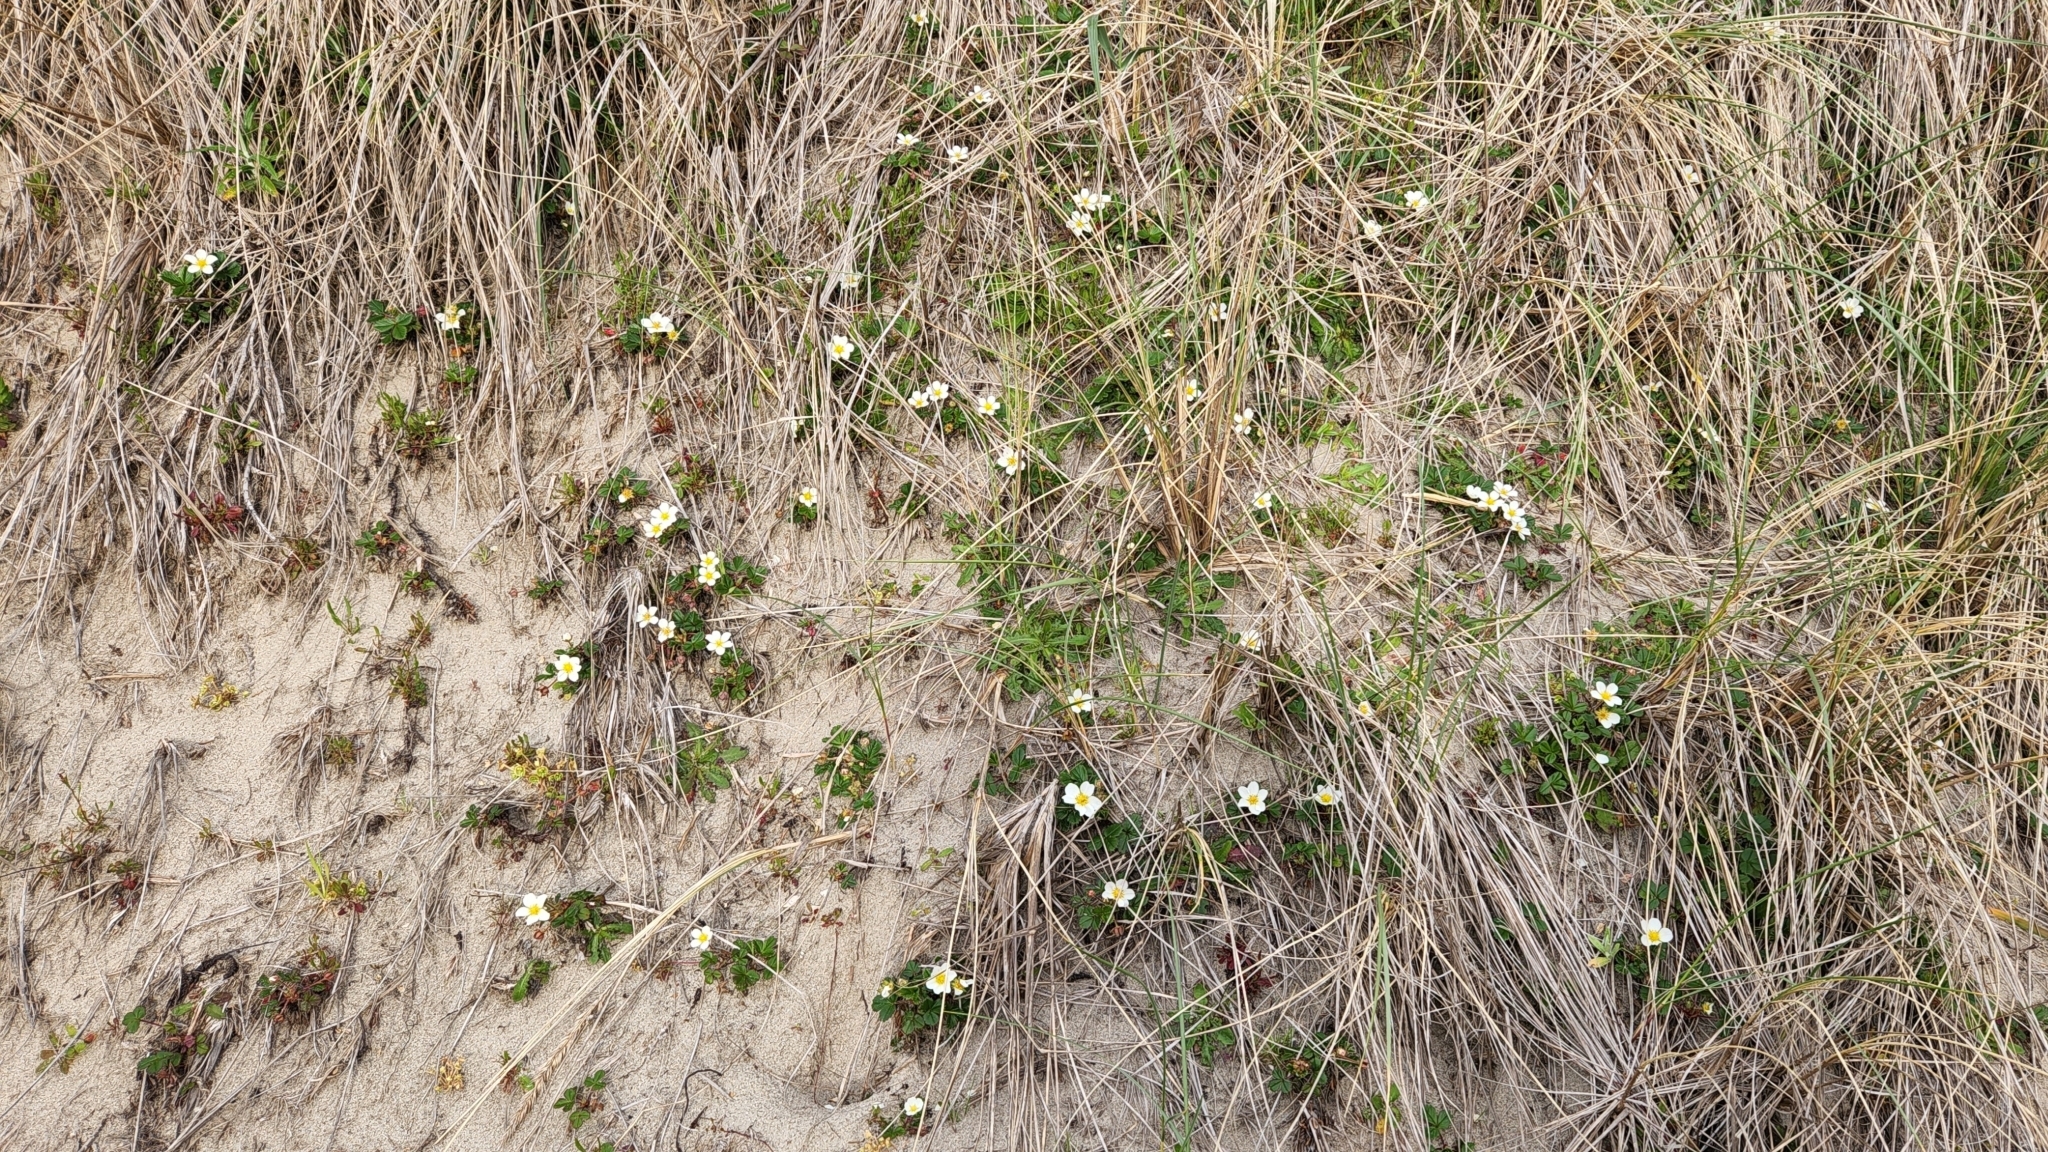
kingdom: Plantae
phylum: Tracheophyta
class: Magnoliopsida
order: Rosales
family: Rosaceae
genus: Fragaria
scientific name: Fragaria chiloensis
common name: Beach strawberry
